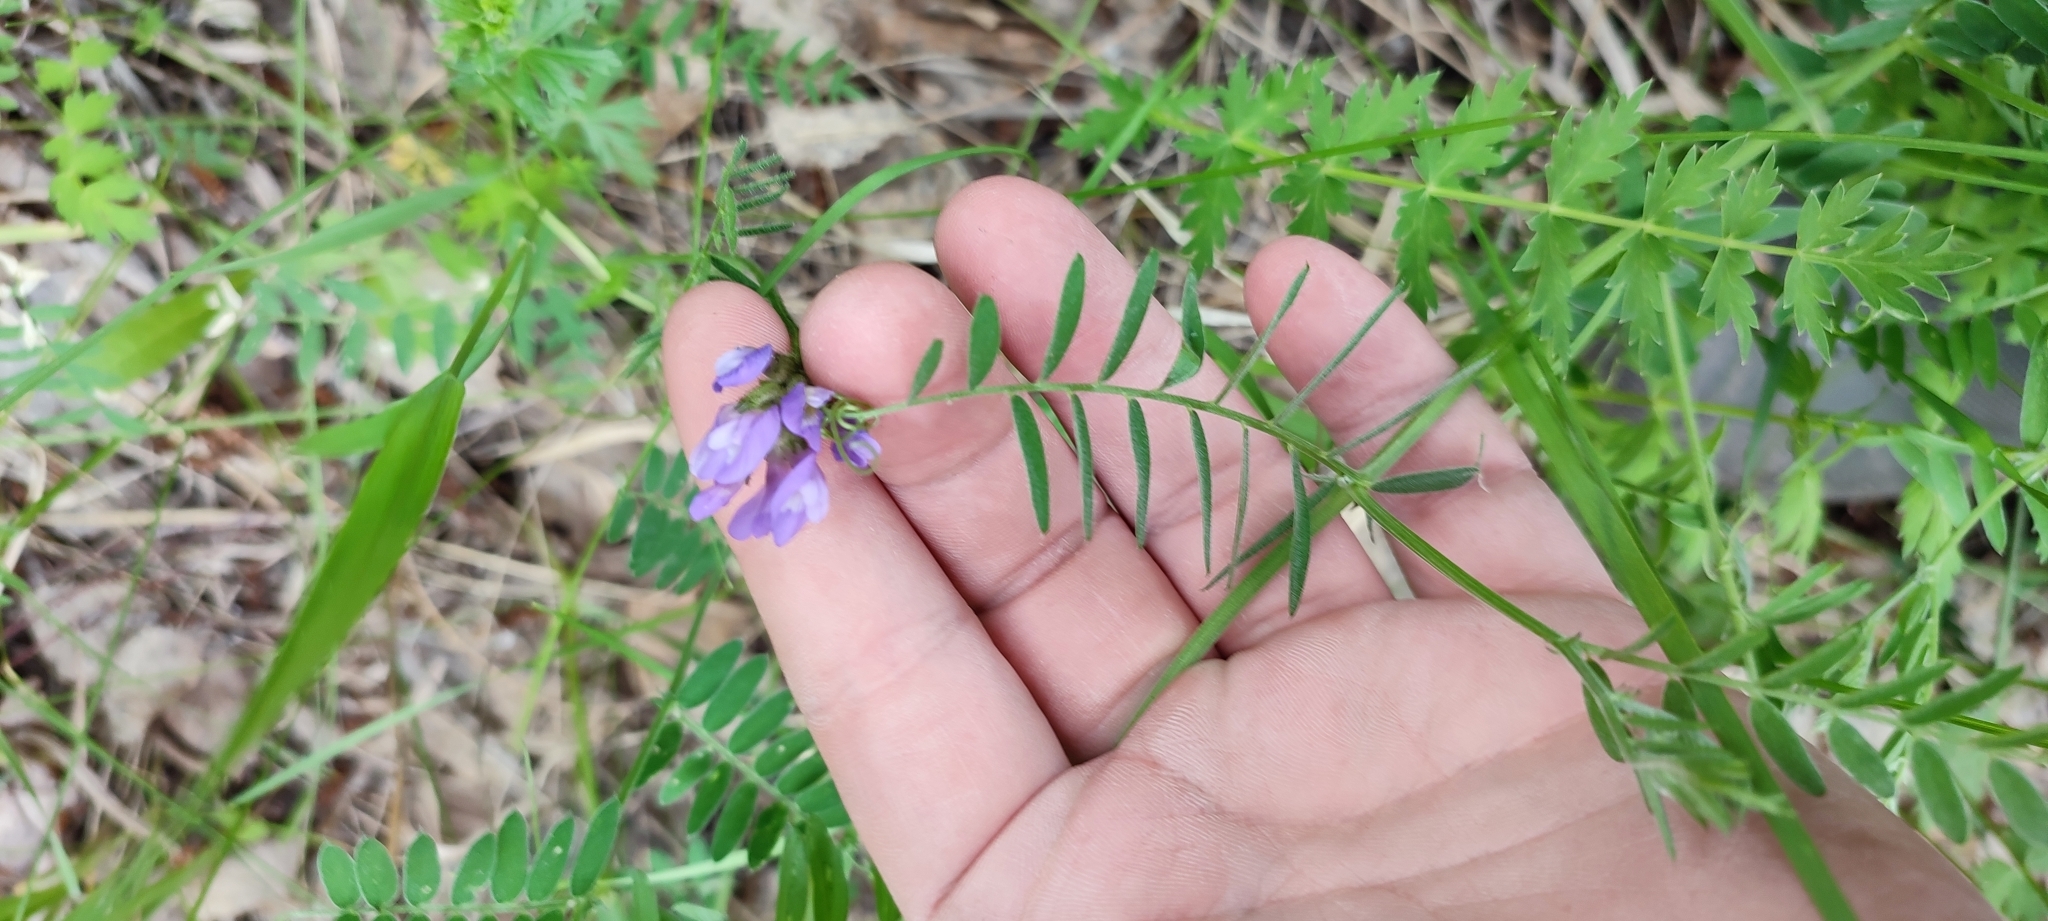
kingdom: Plantae
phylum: Tracheophyta
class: Magnoliopsida
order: Fabales
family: Fabaceae
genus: Astragalus
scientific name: Astragalus danicus
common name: Purple milk-vetch
